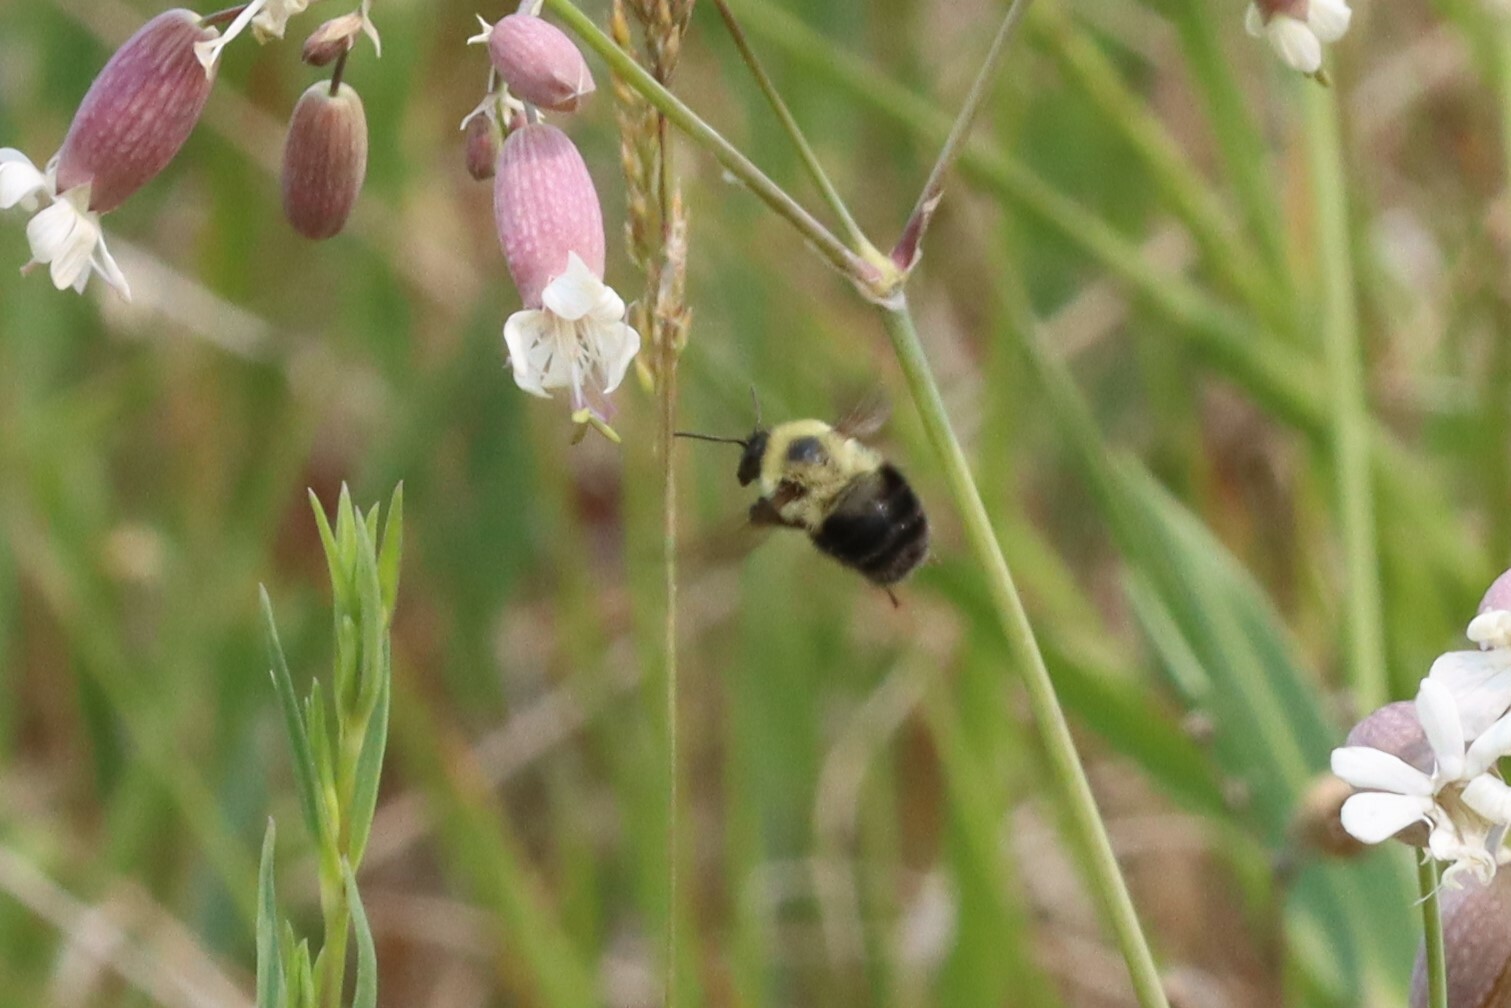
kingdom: Animalia
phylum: Arthropoda
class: Insecta
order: Hymenoptera
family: Apidae
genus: Bombus
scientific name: Bombus bimaculatus
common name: Two-spotted bumble bee
